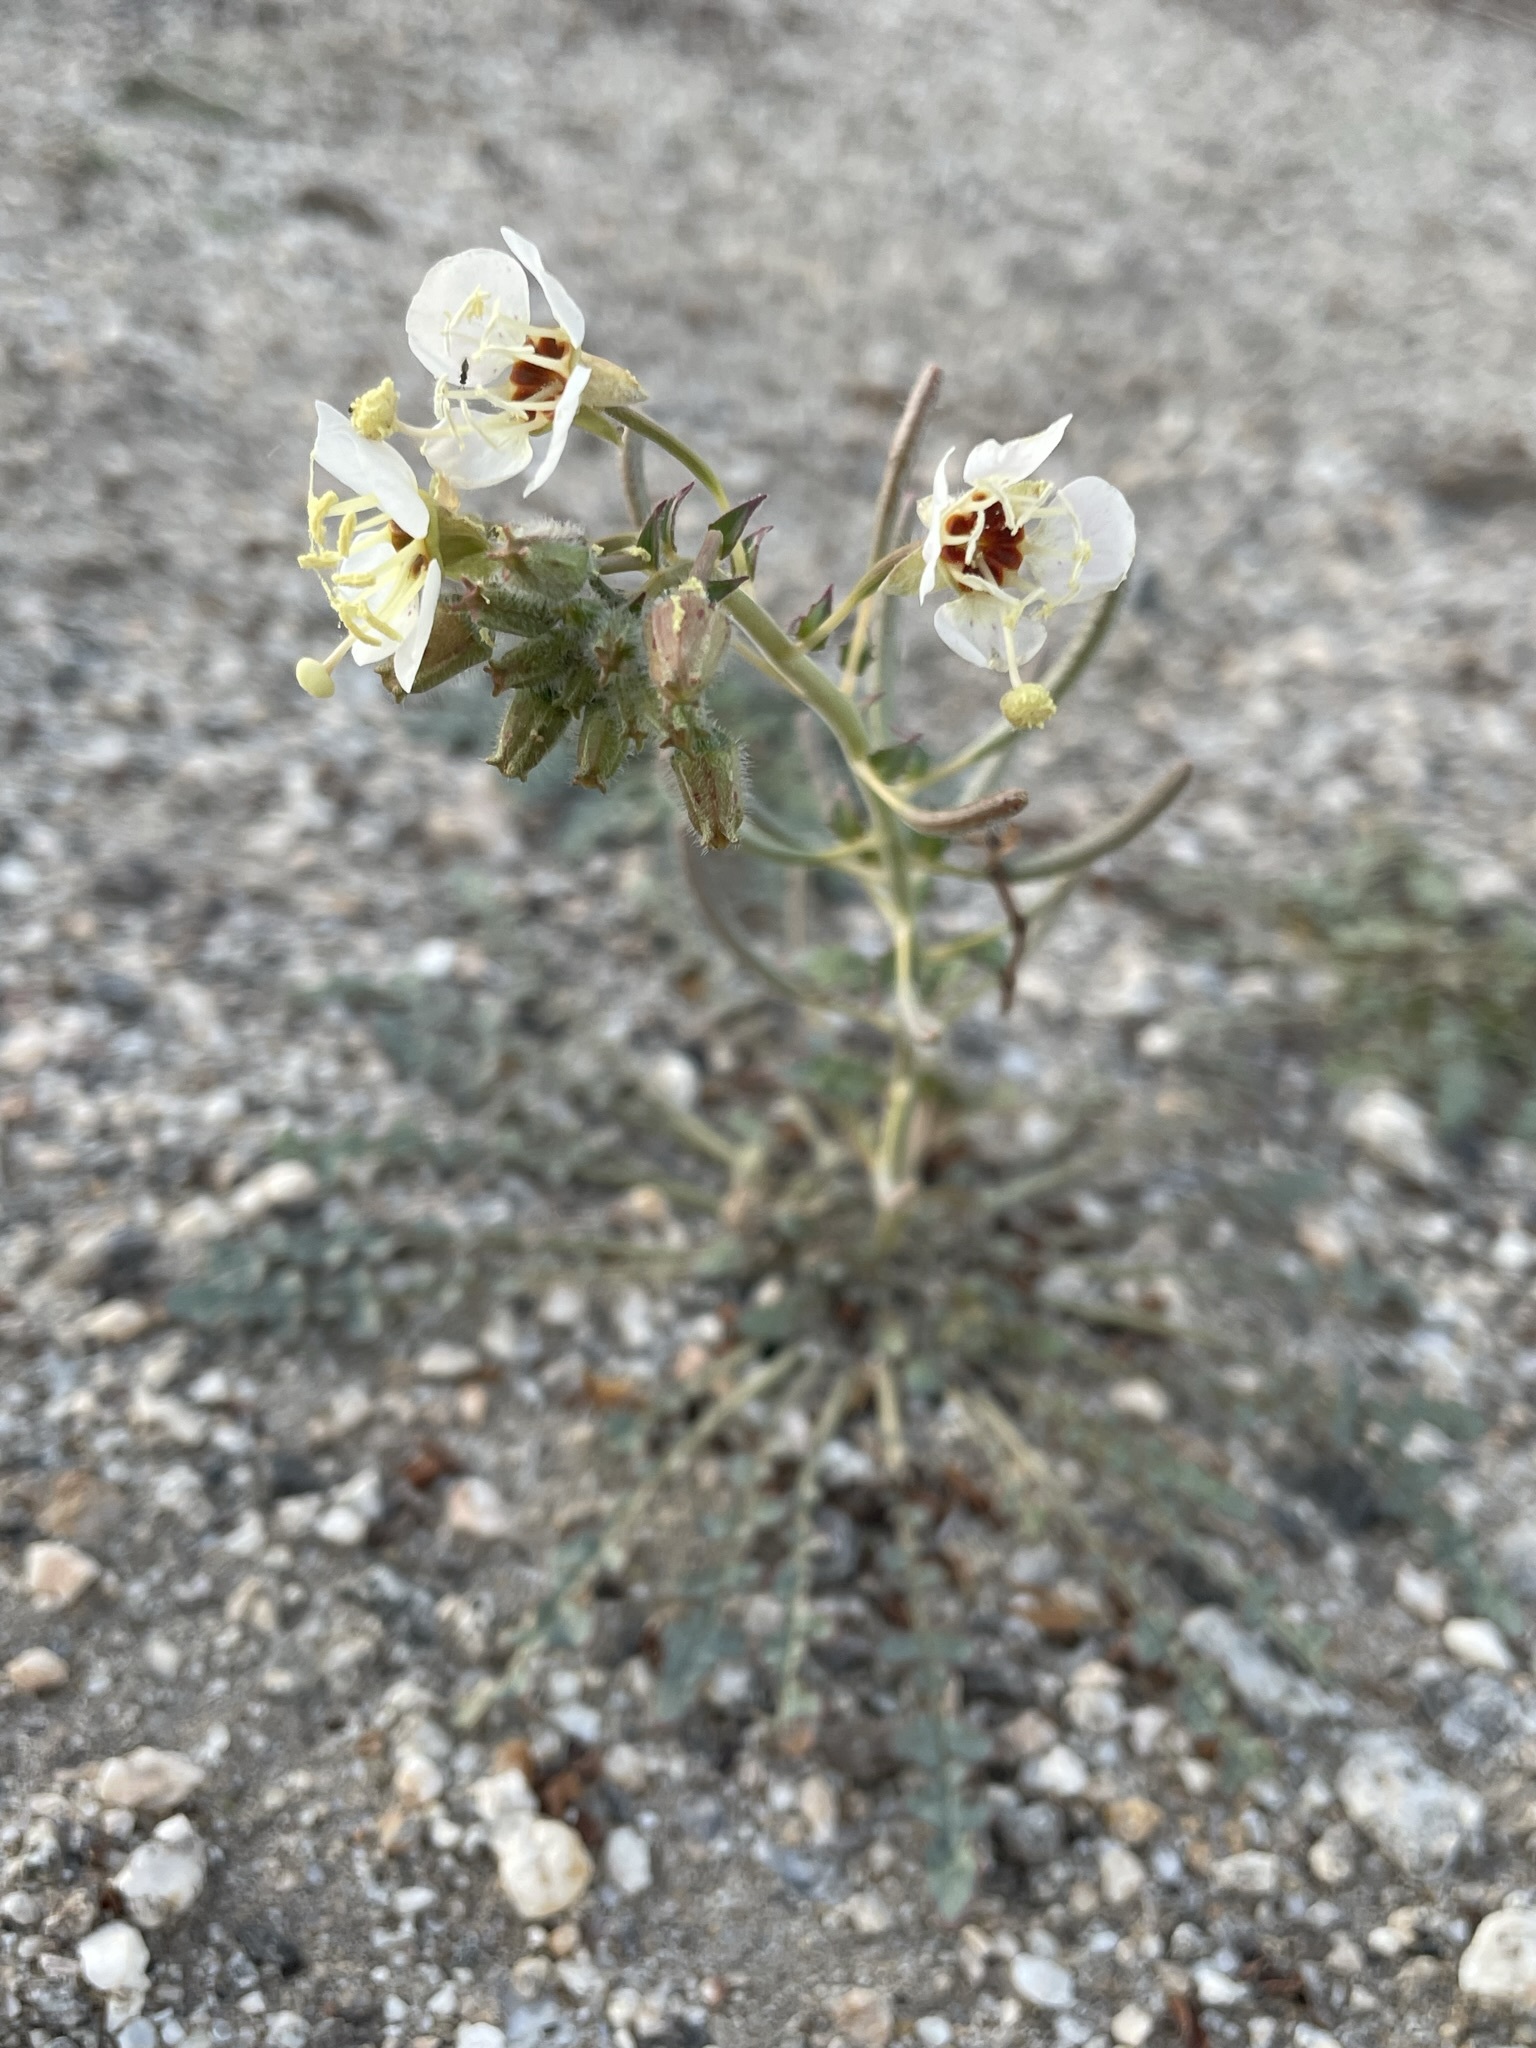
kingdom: Plantae
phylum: Tracheophyta
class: Magnoliopsida
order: Myrtales
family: Onagraceae
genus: Chylismia
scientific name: Chylismia claviformis
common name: Browneyes
